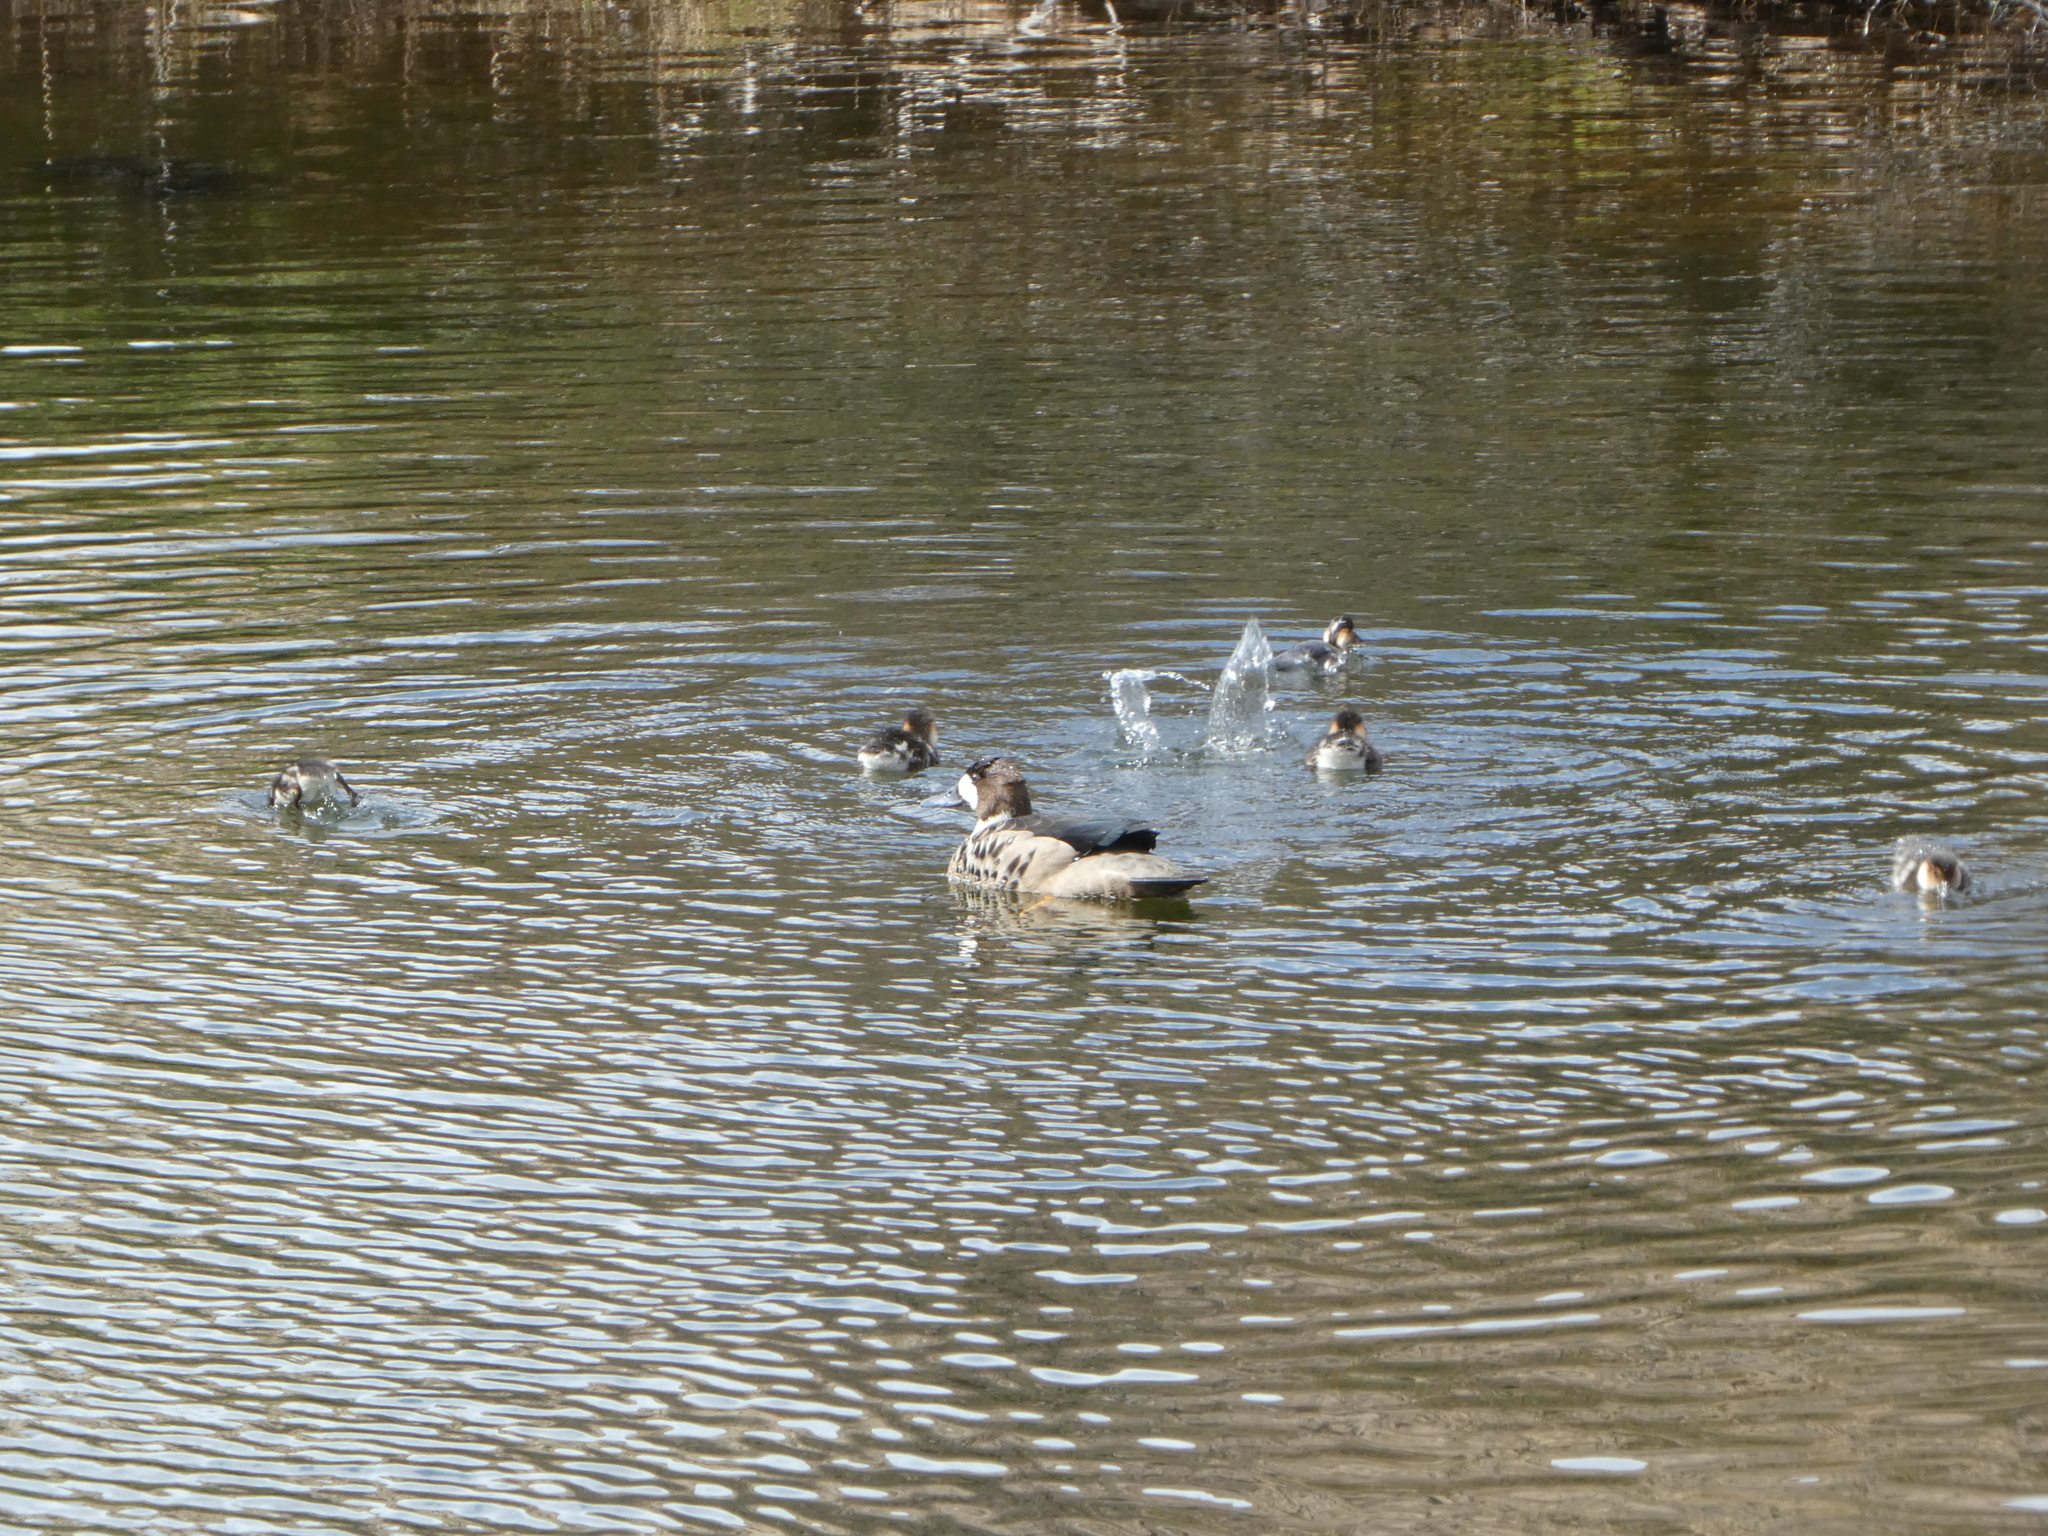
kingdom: Animalia
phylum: Chordata
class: Aves
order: Anseriformes
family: Anatidae
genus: Speculanas
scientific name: Speculanas specularis
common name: Bronze-winged duck
